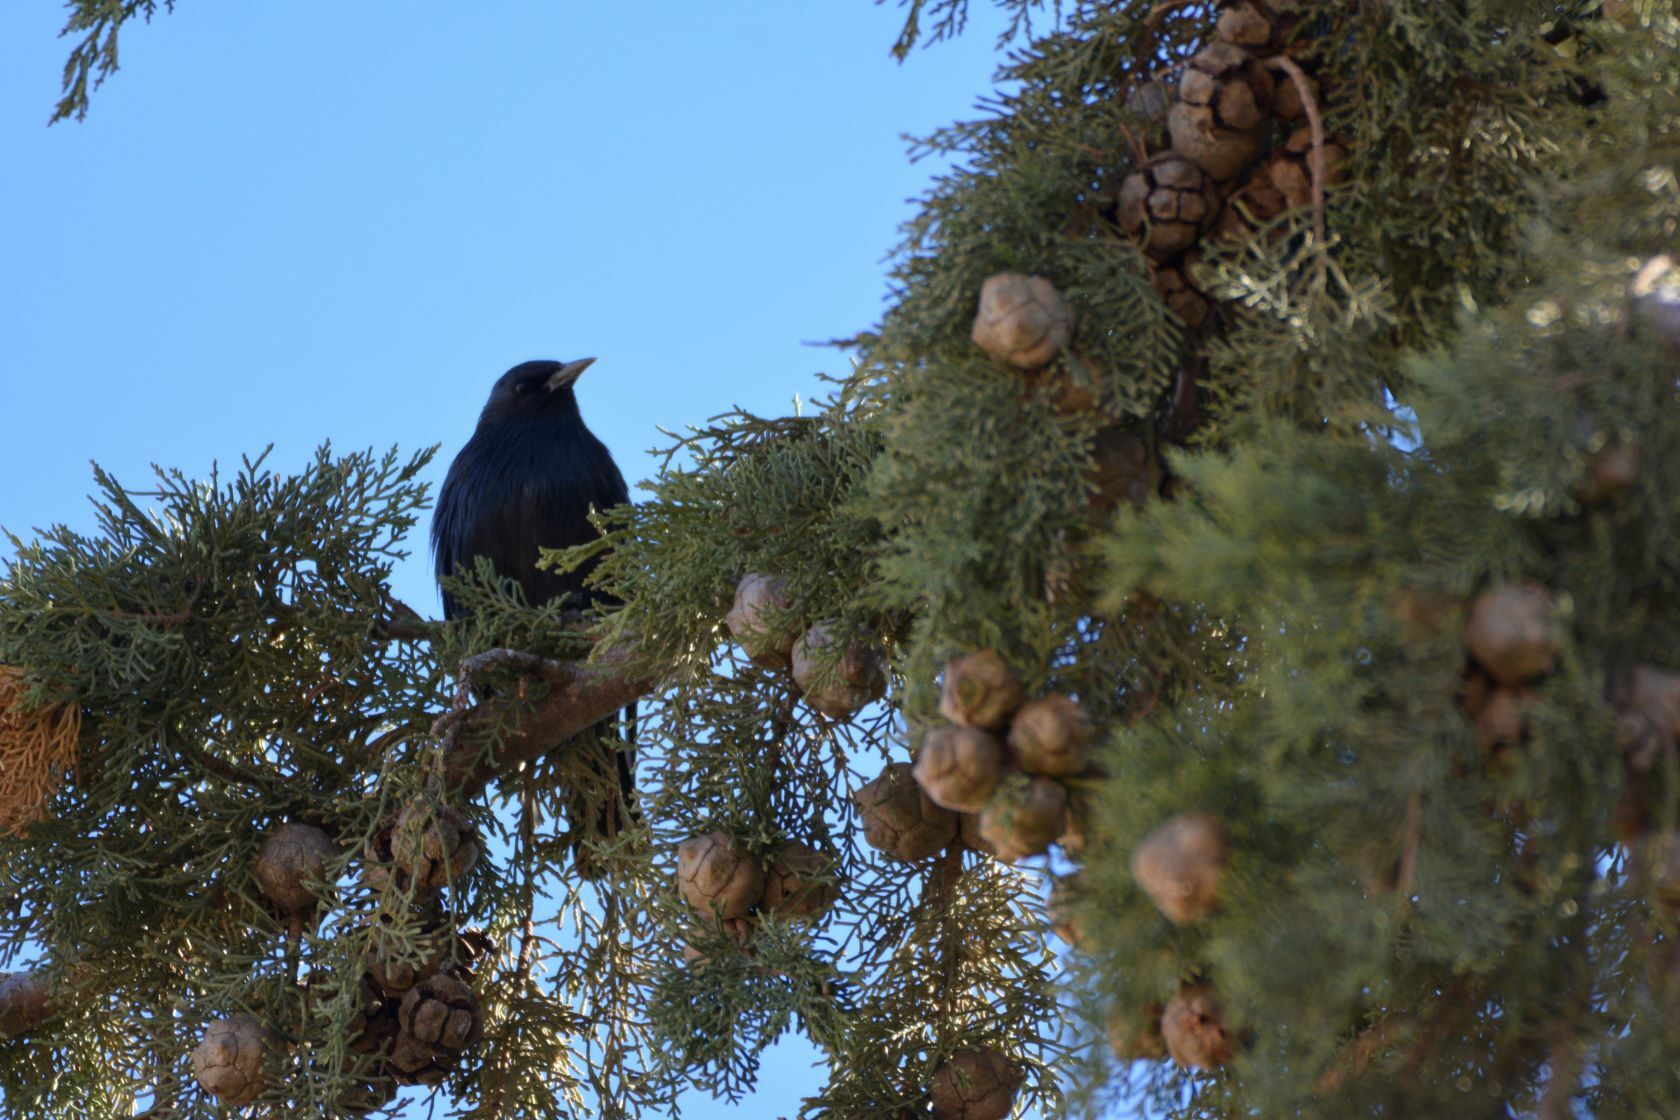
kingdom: Animalia
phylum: Chordata
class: Aves
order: Passeriformes
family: Sturnidae
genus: Sturnus
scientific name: Sturnus unicolor
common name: Spotless starling
